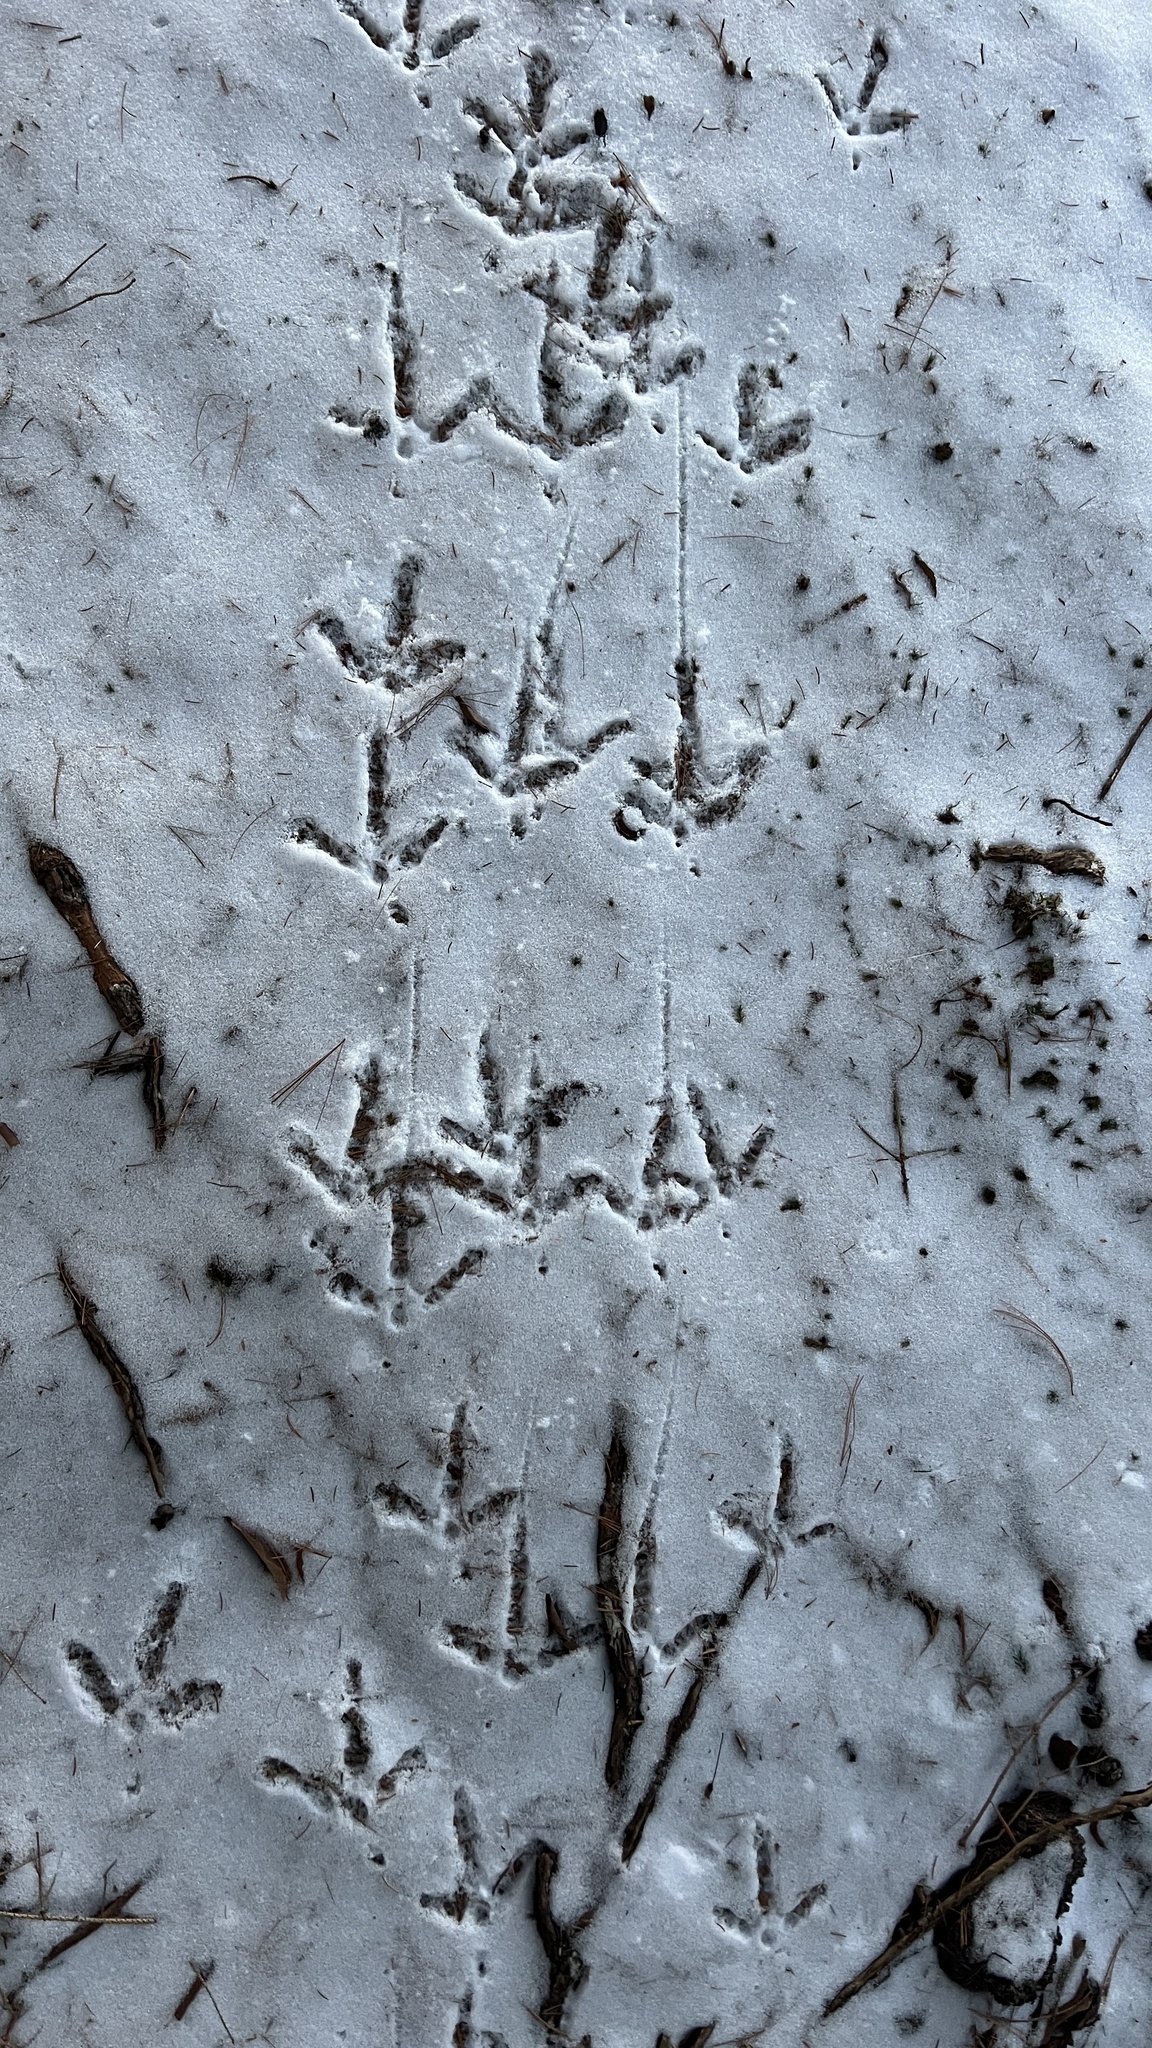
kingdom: Animalia
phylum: Chordata
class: Aves
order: Galliformes
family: Phasianidae
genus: Meleagris
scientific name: Meleagris gallopavo
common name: Wild turkey
